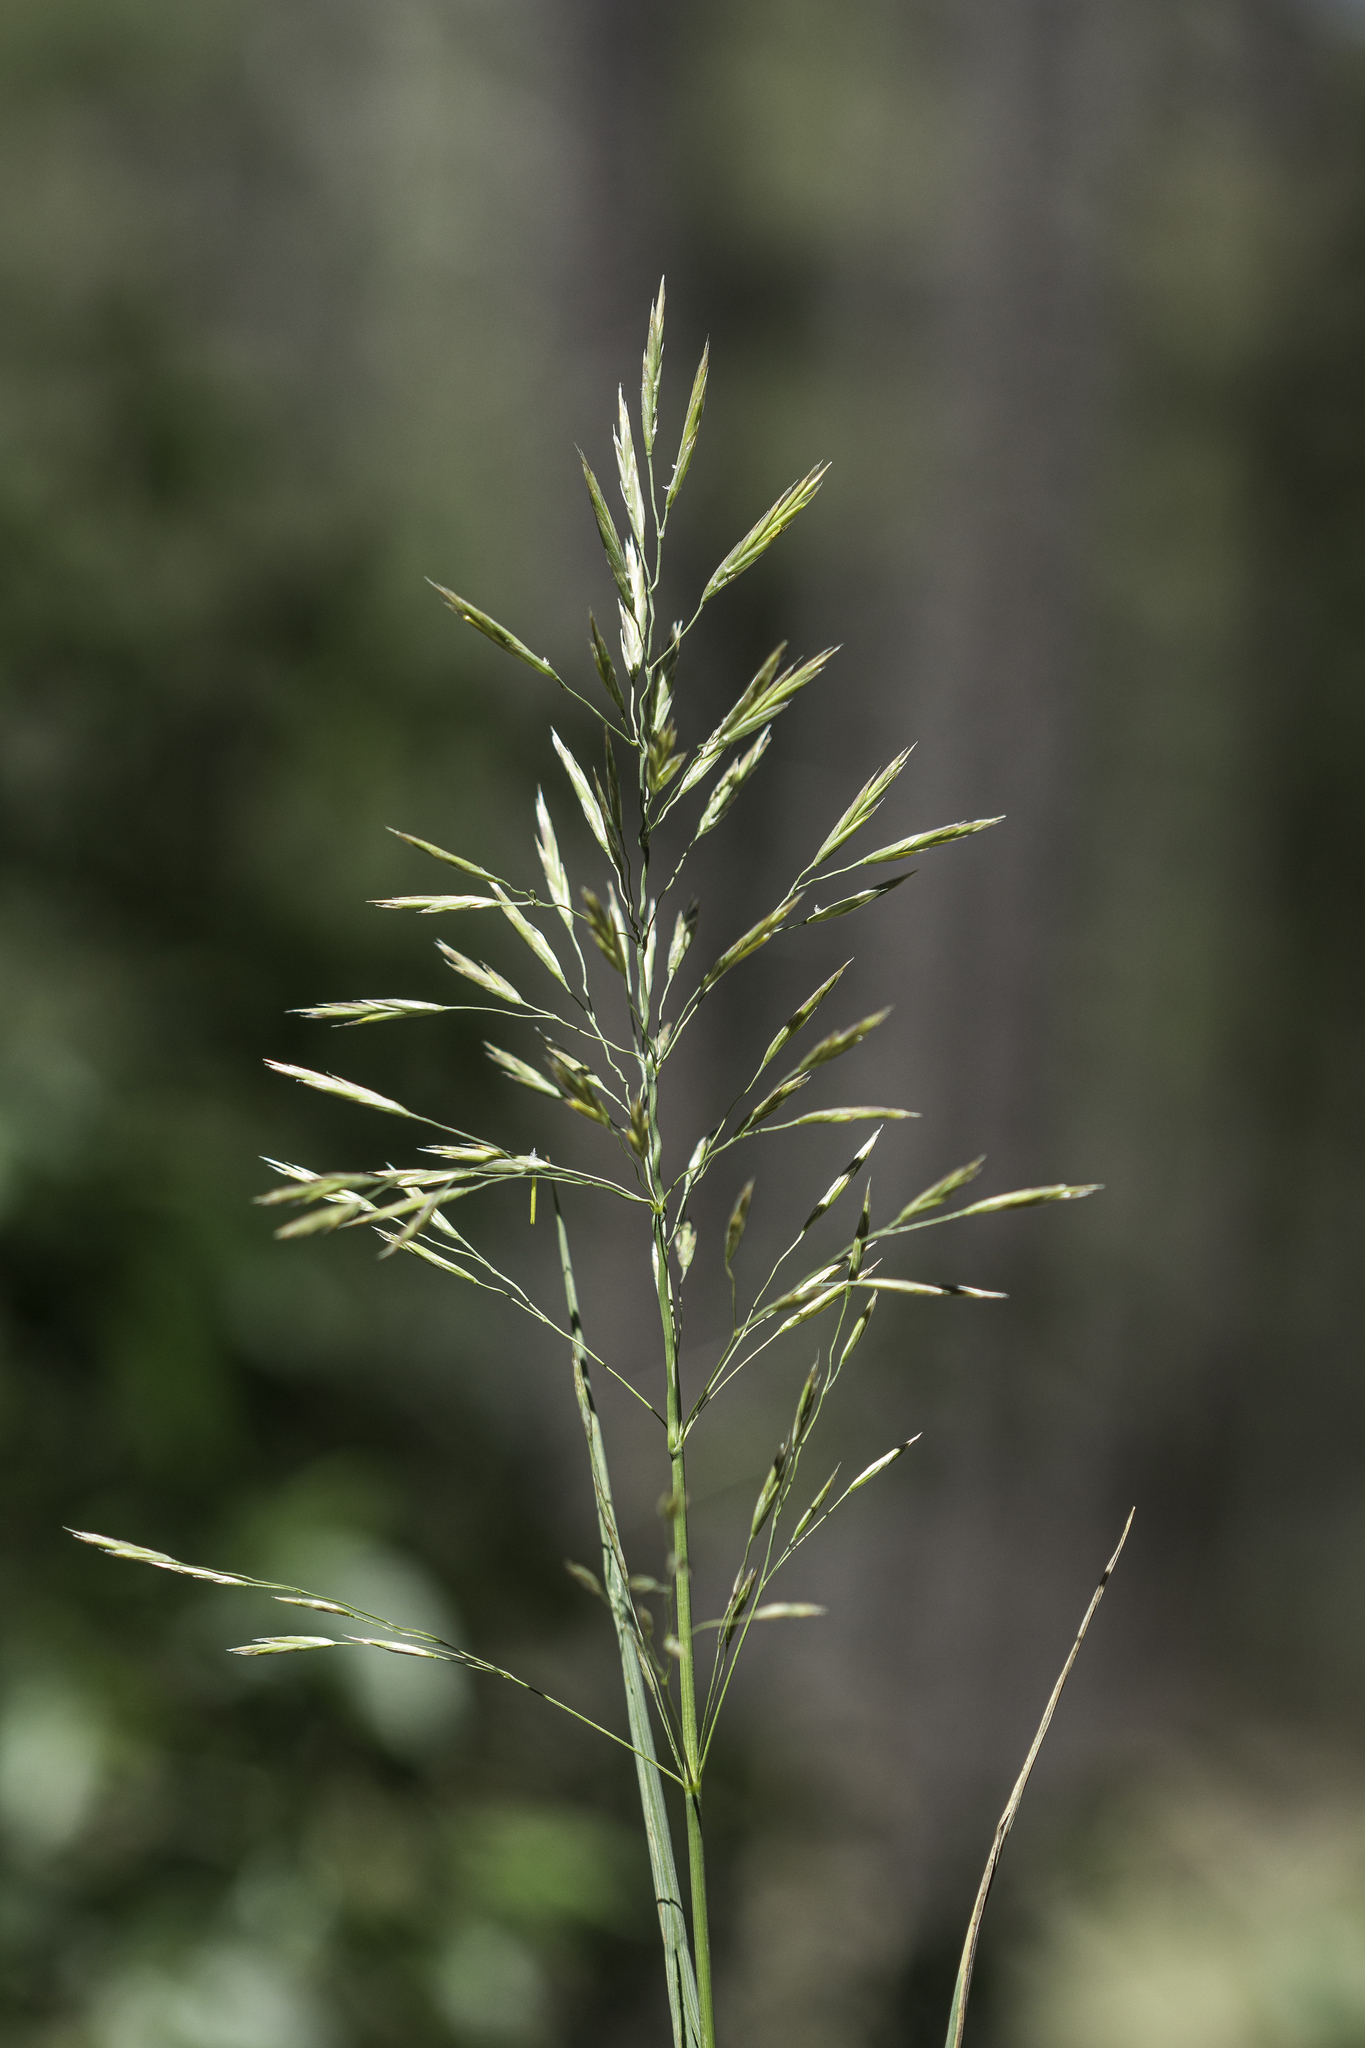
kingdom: Plantae
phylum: Tracheophyta
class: Liliopsida
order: Poales
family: Poaceae
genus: Bromus
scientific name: Bromus inermis
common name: Smooth brome
